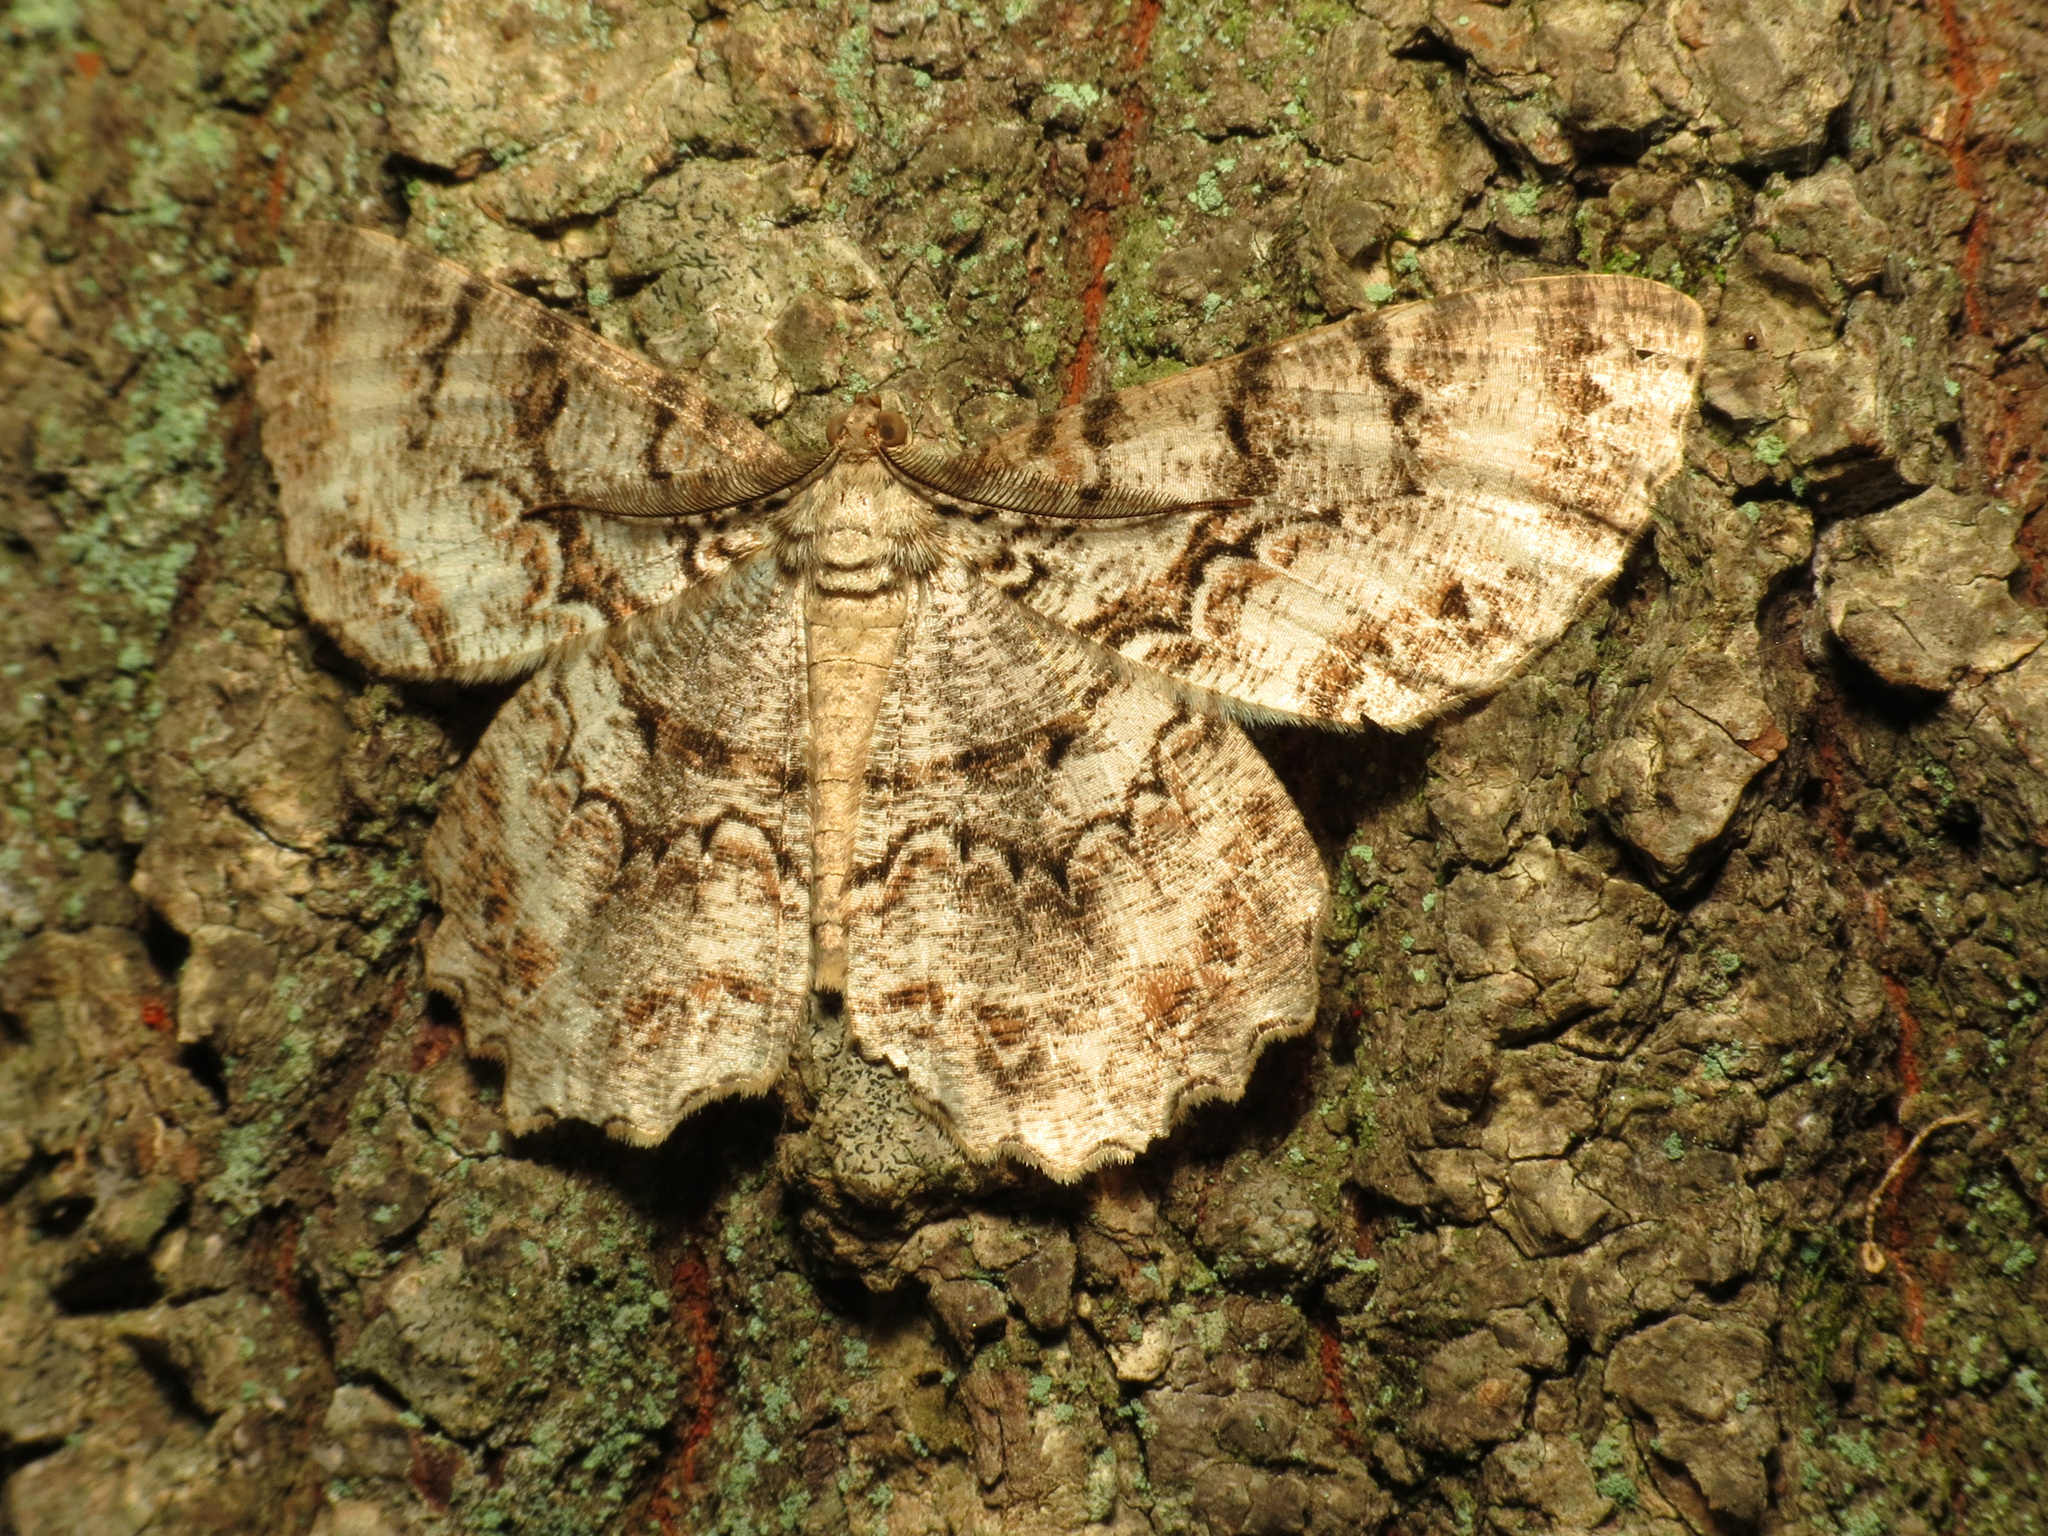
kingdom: Animalia
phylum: Arthropoda
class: Insecta
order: Lepidoptera
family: Geometridae
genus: Epimecis
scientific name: Epimecis hortaria
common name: Tulip-tree beauty
